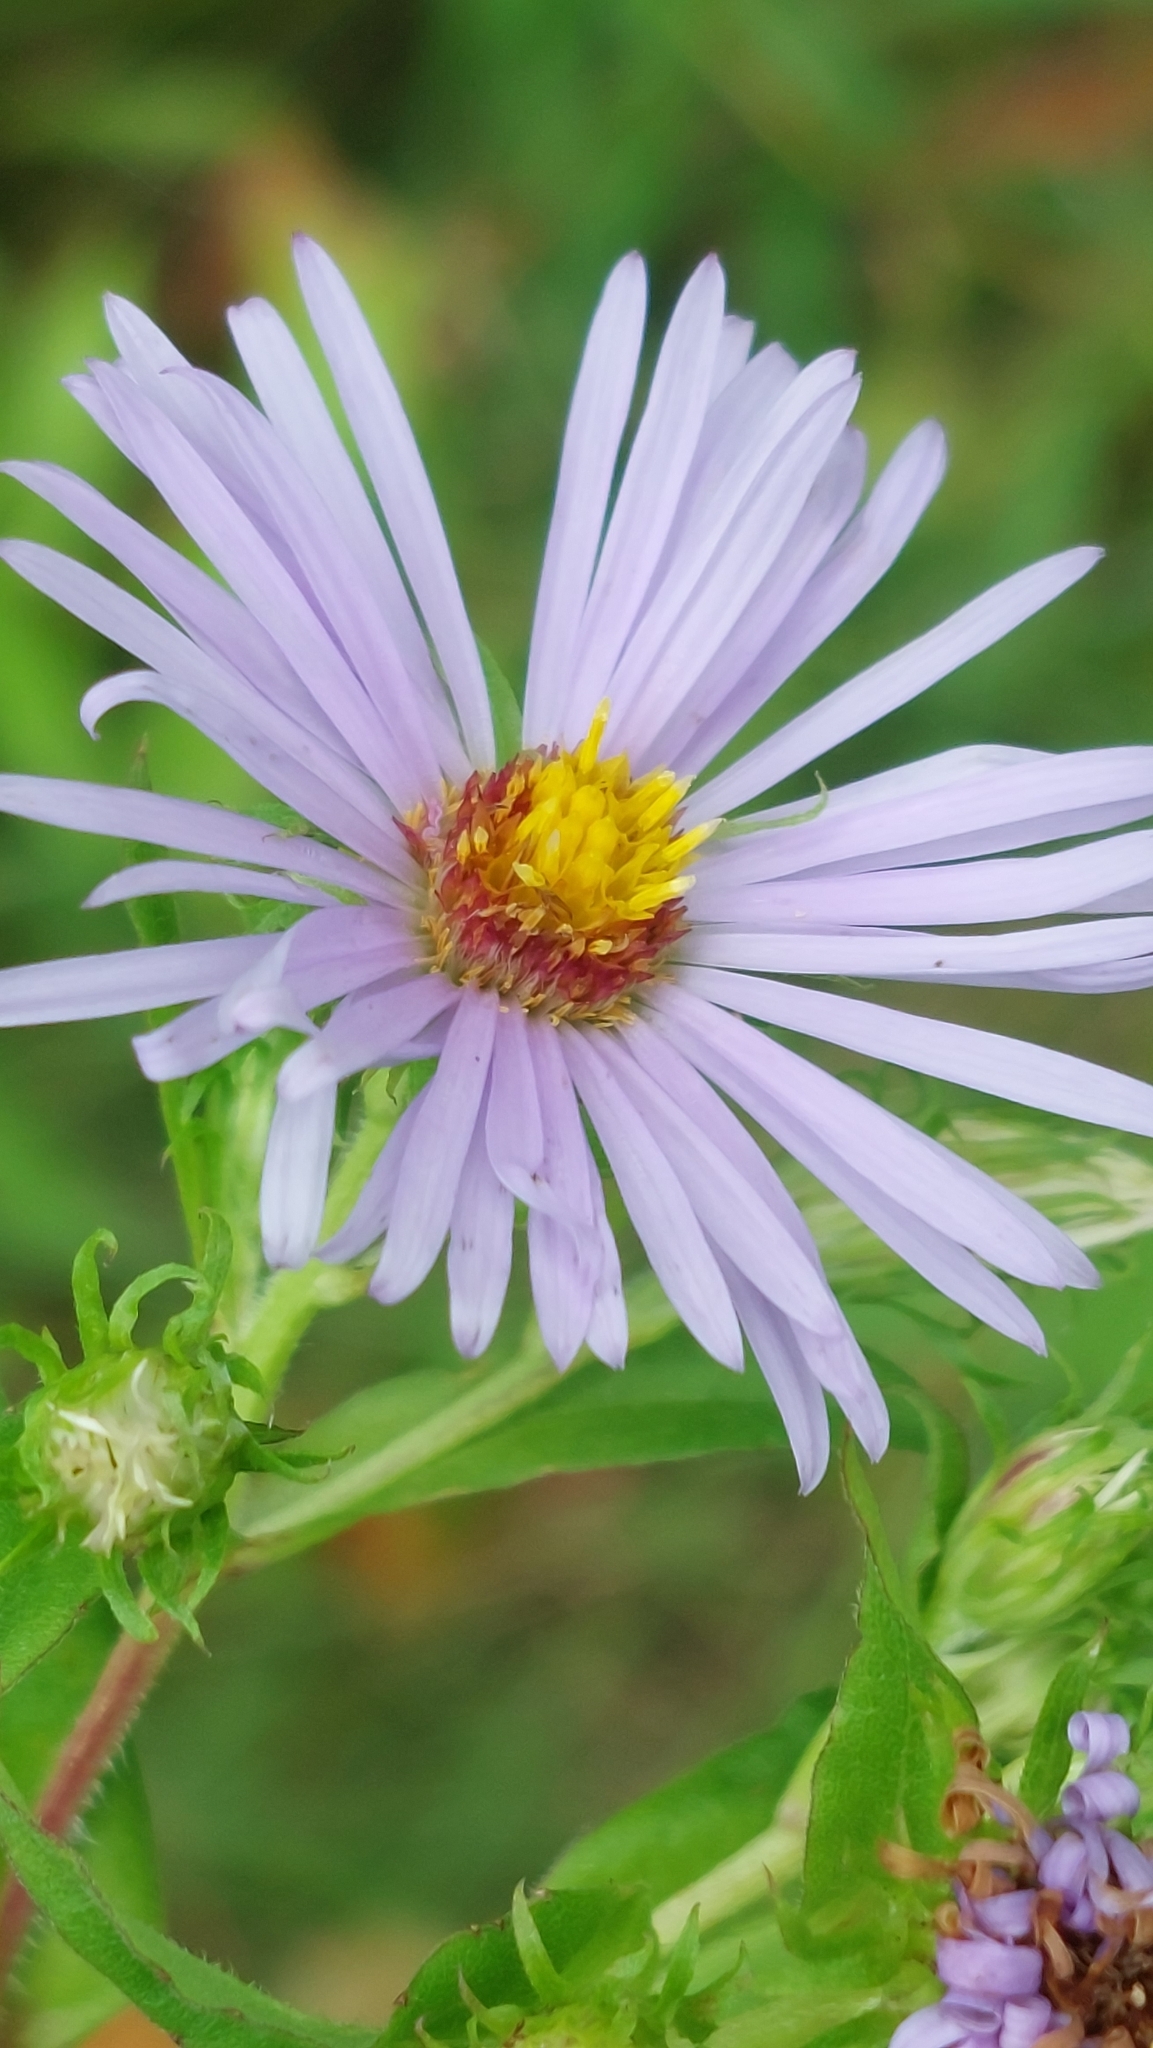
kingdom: Plantae
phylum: Tracheophyta
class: Magnoliopsida
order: Asterales
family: Asteraceae
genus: Symphyotrichum
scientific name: Symphyotrichum puniceum
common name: Bog aster
